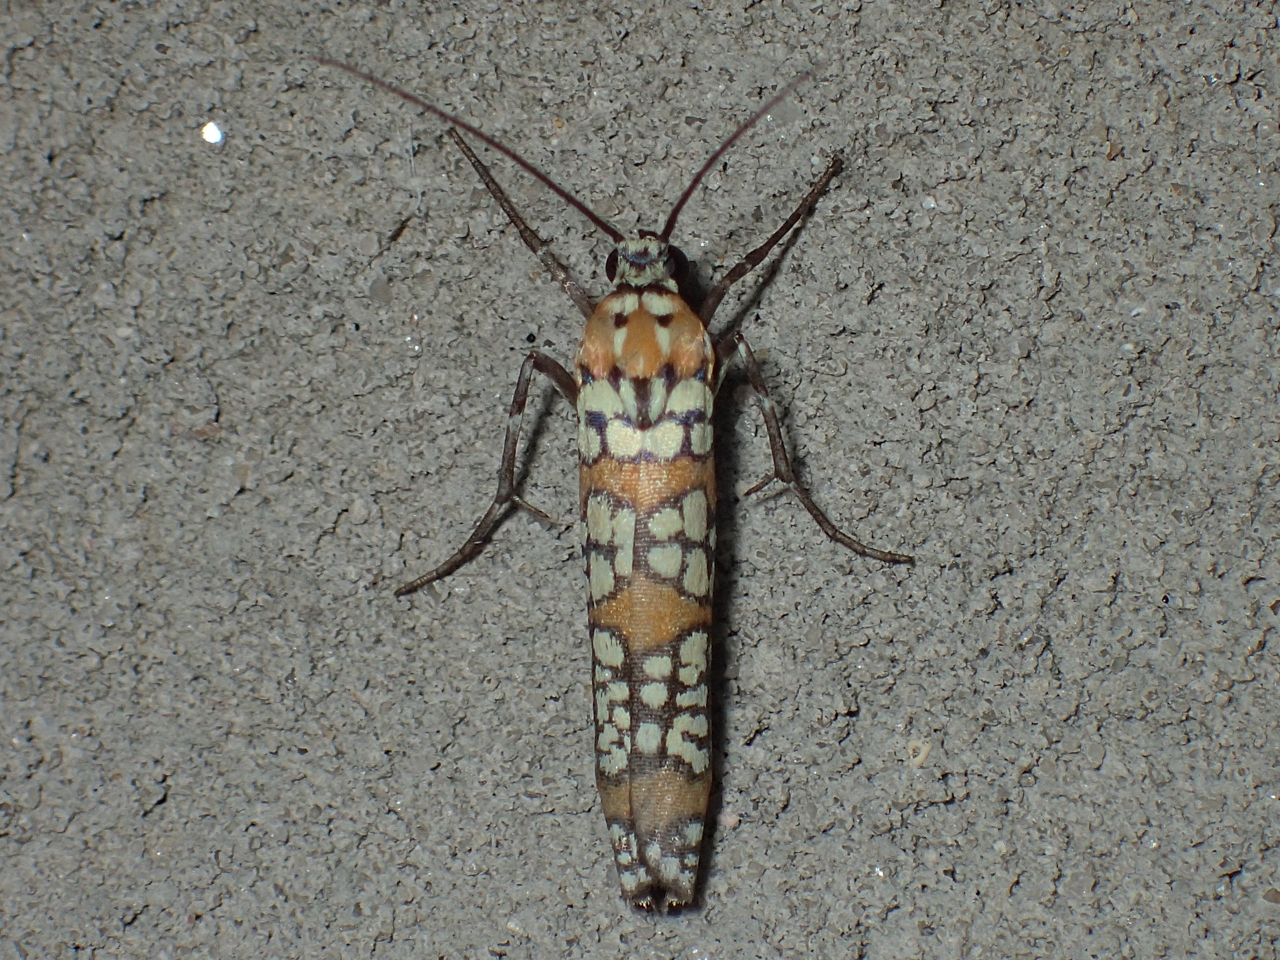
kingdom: Animalia
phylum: Arthropoda
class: Insecta
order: Lepidoptera
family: Attevidae
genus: Atteva
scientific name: Atteva punctella
